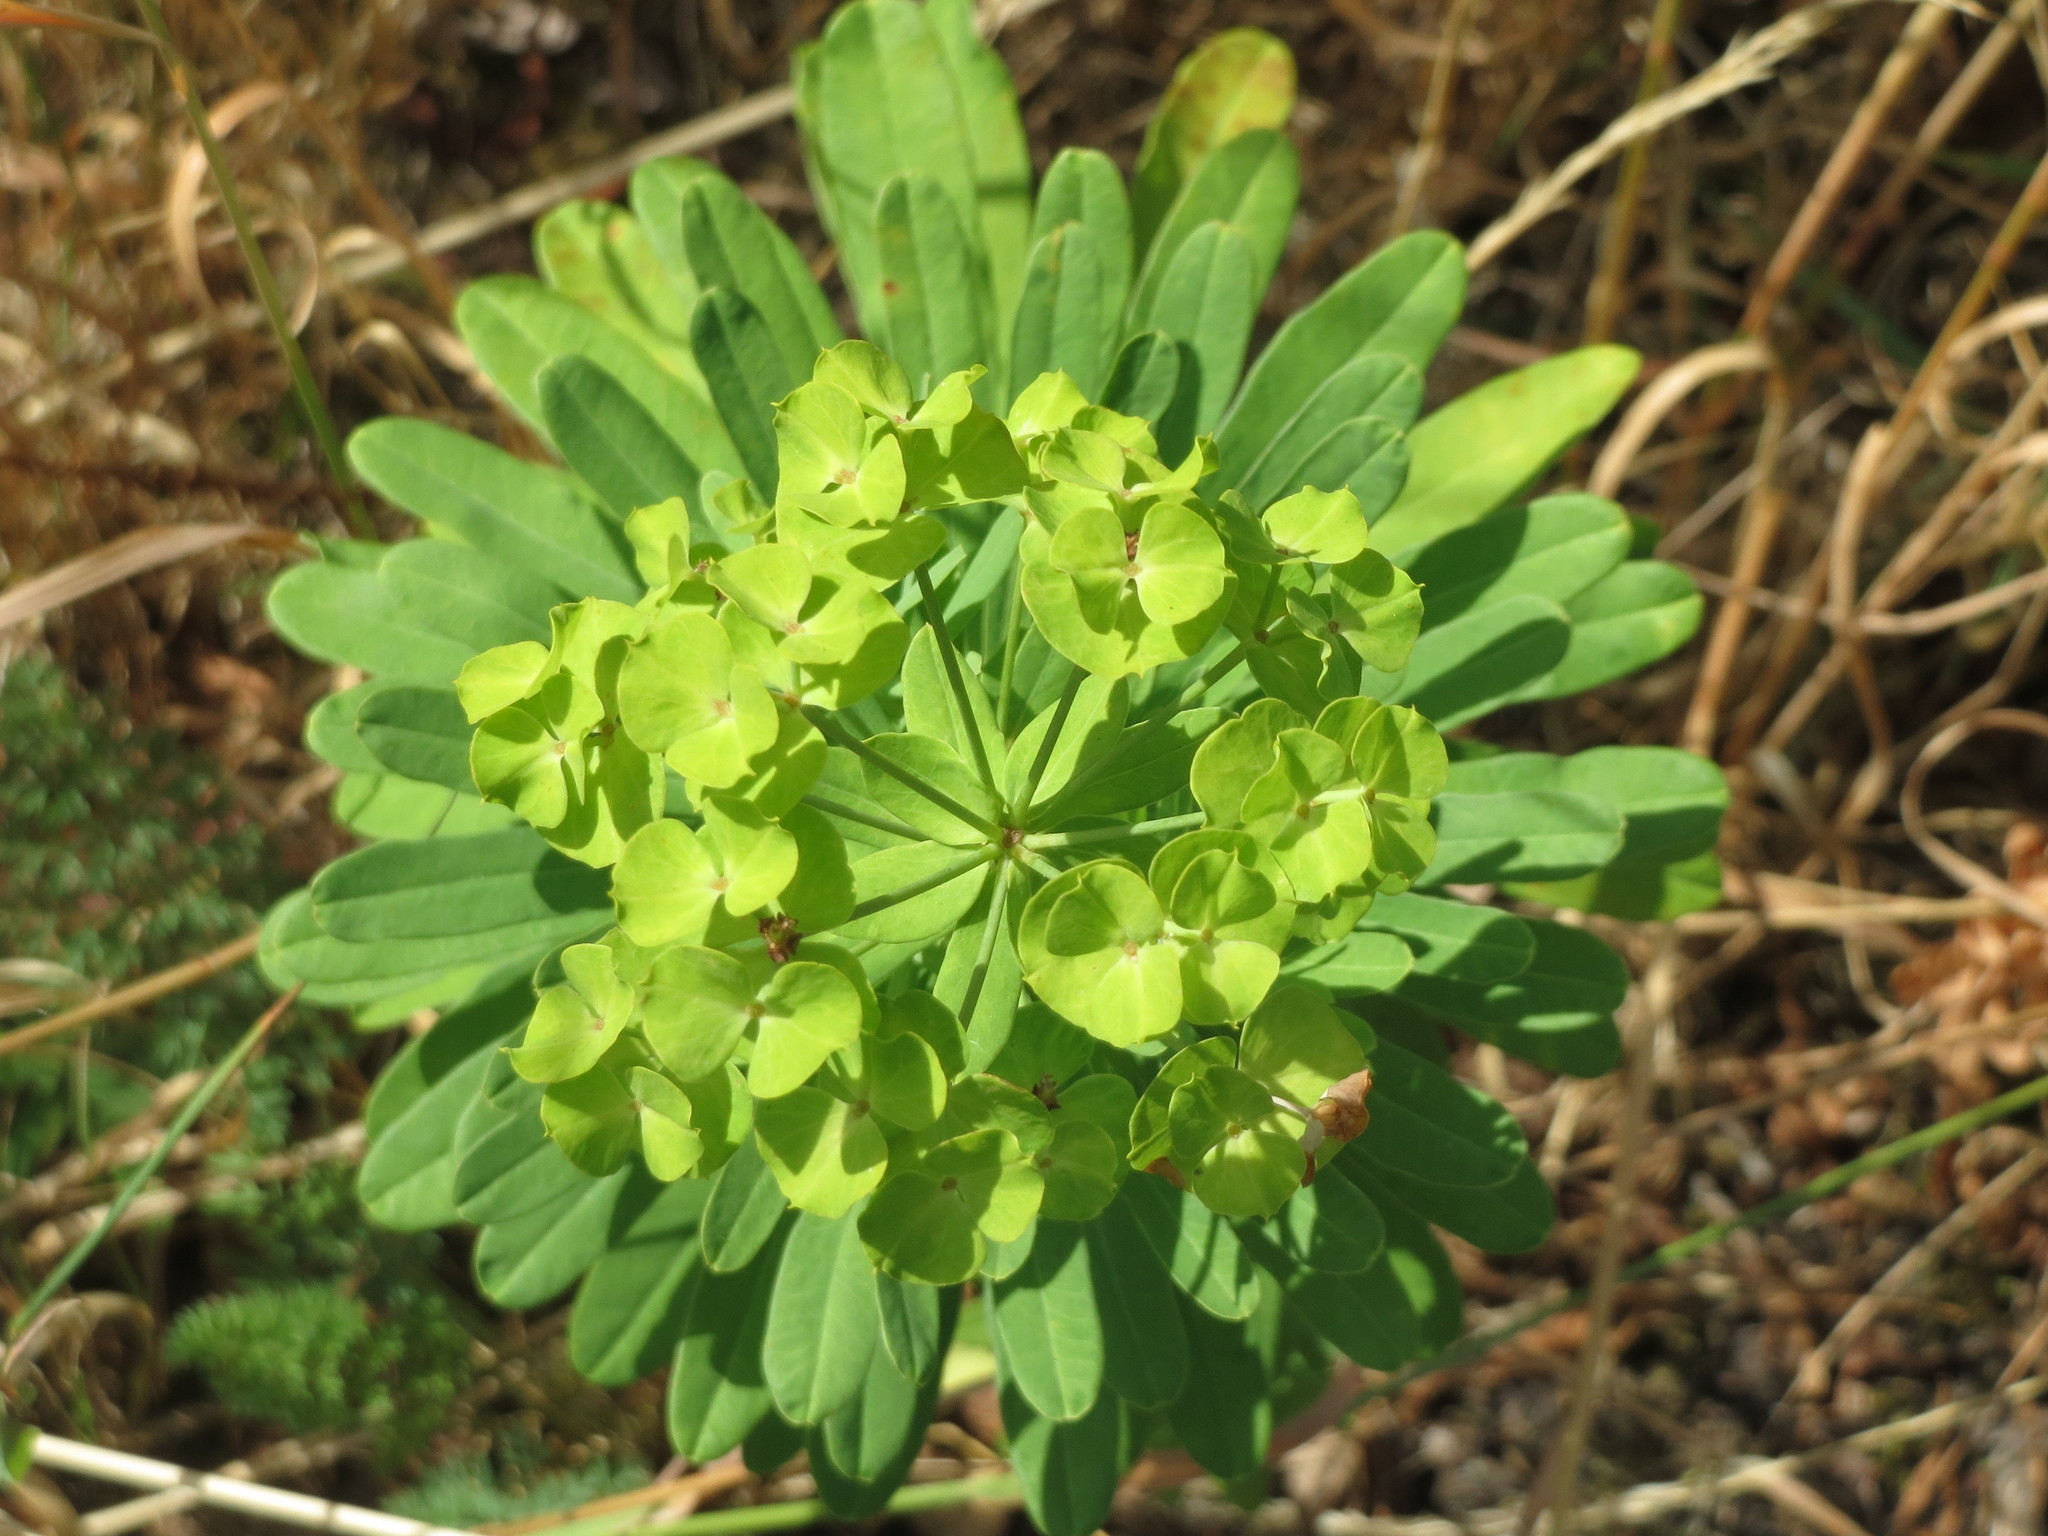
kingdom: Plantae
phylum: Tracheophyta
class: Magnoliopsida
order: Malpighiales
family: Euphorbiaceae
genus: Euphorbia
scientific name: Euphorbia esula
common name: Leafy spurge
